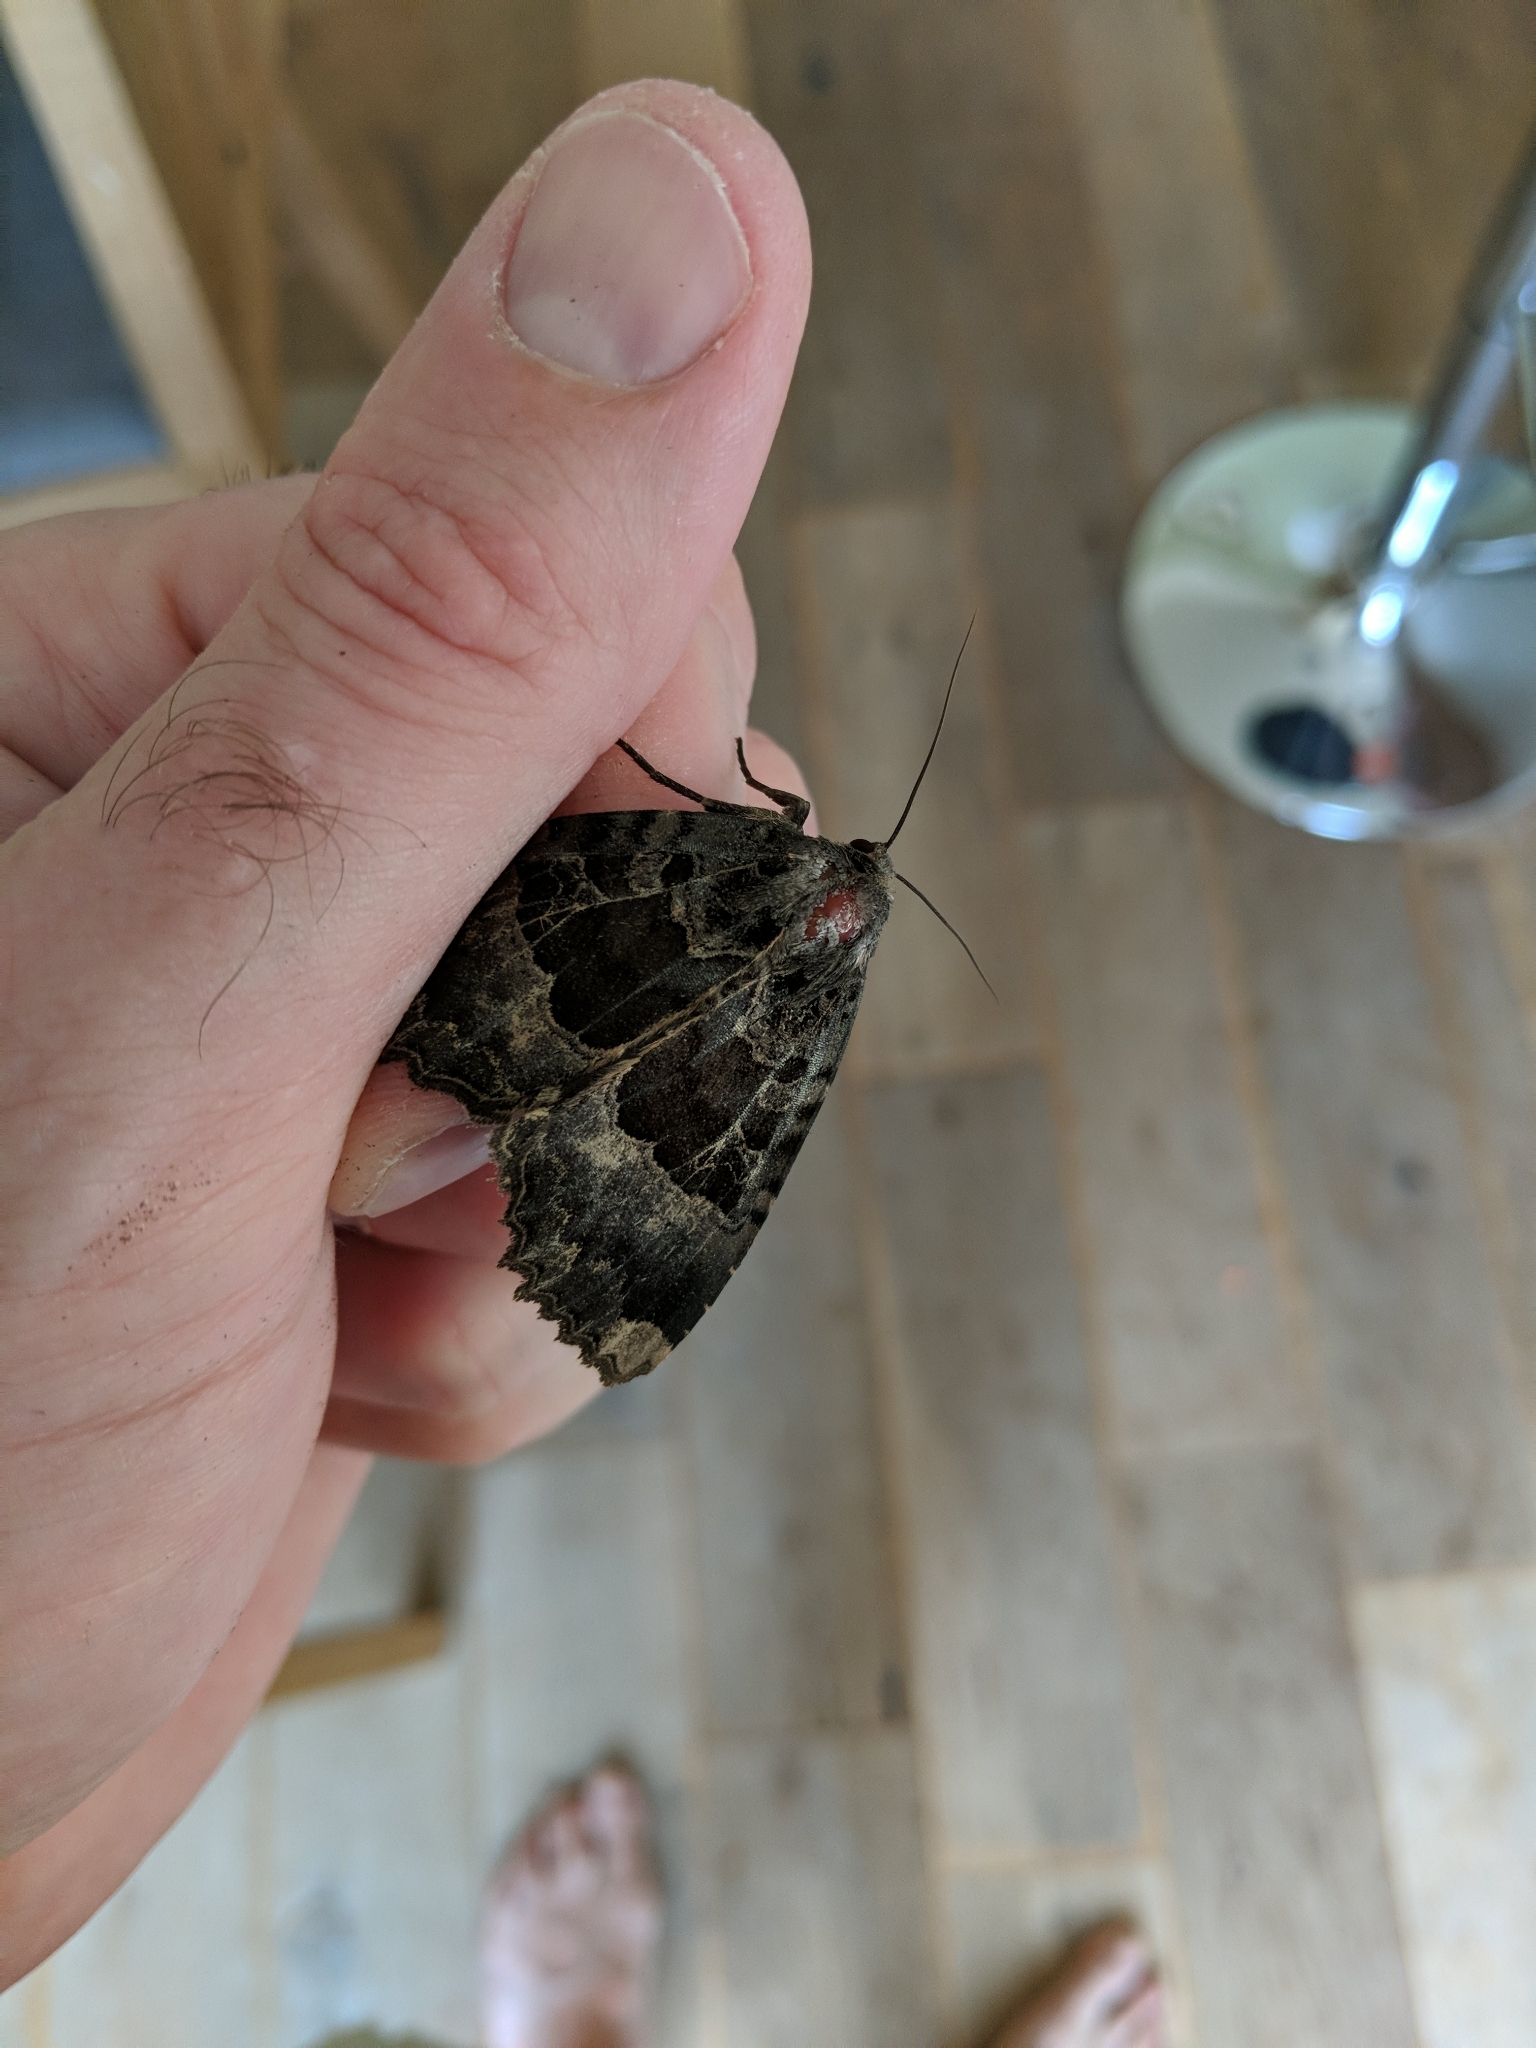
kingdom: Animalia
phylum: Arthropoda
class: Insecta
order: Lepidoptera
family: Noctuidae
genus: Mormo
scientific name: Mormo maura
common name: Old lady
